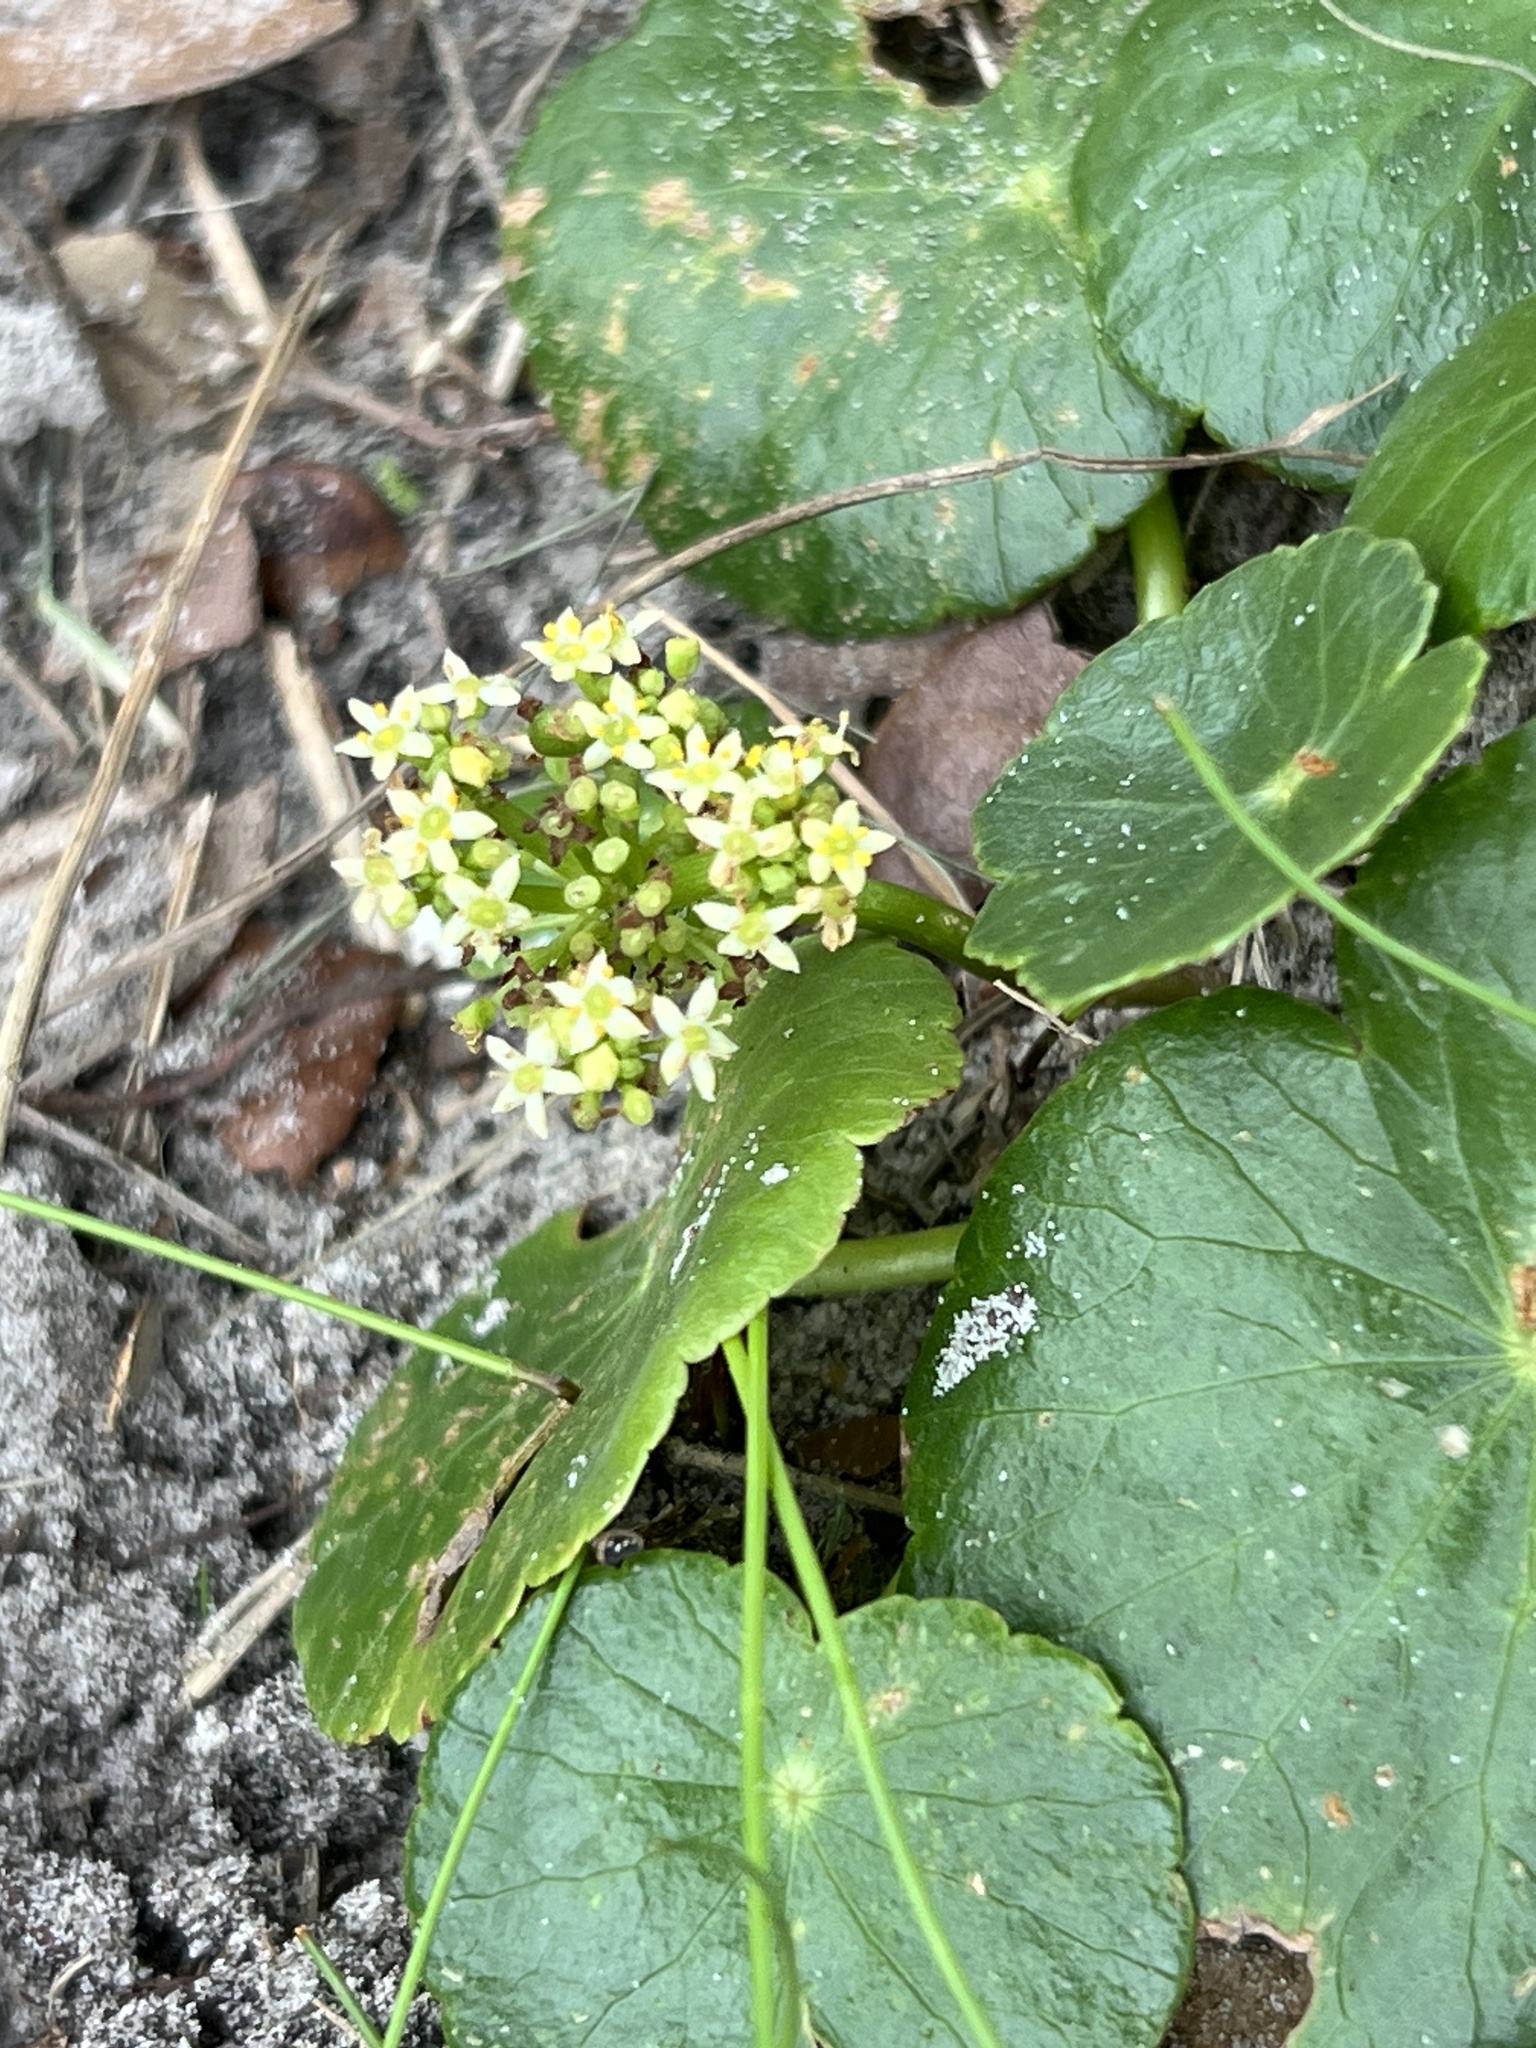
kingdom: Plantae
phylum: Tracheophyta
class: Magnoliopsida
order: Apiales
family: Araliaceae
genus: Hydrocotyle
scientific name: Hydrocotyle bonariensis
